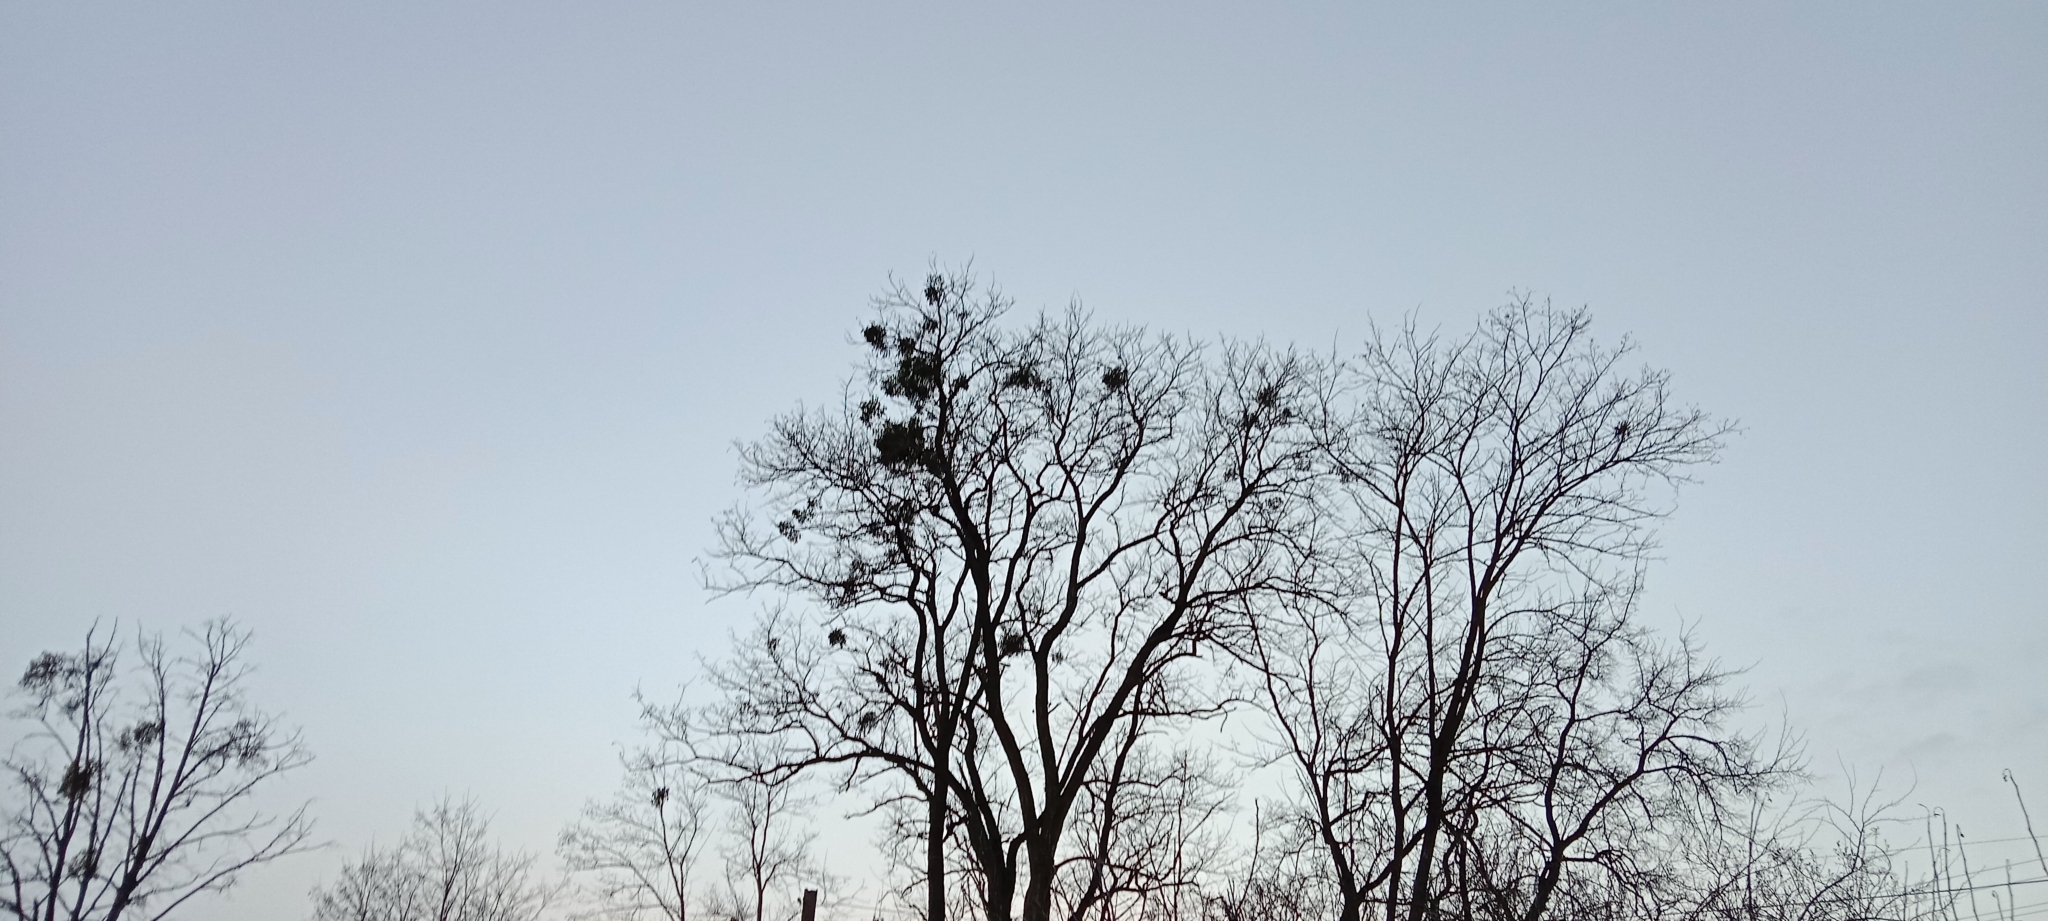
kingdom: Plantae
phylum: Tracheophyta
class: Magnoliopsida
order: Santalales
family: Viscaceae
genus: Viscum
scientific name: Viscum album
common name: Mistletoe
